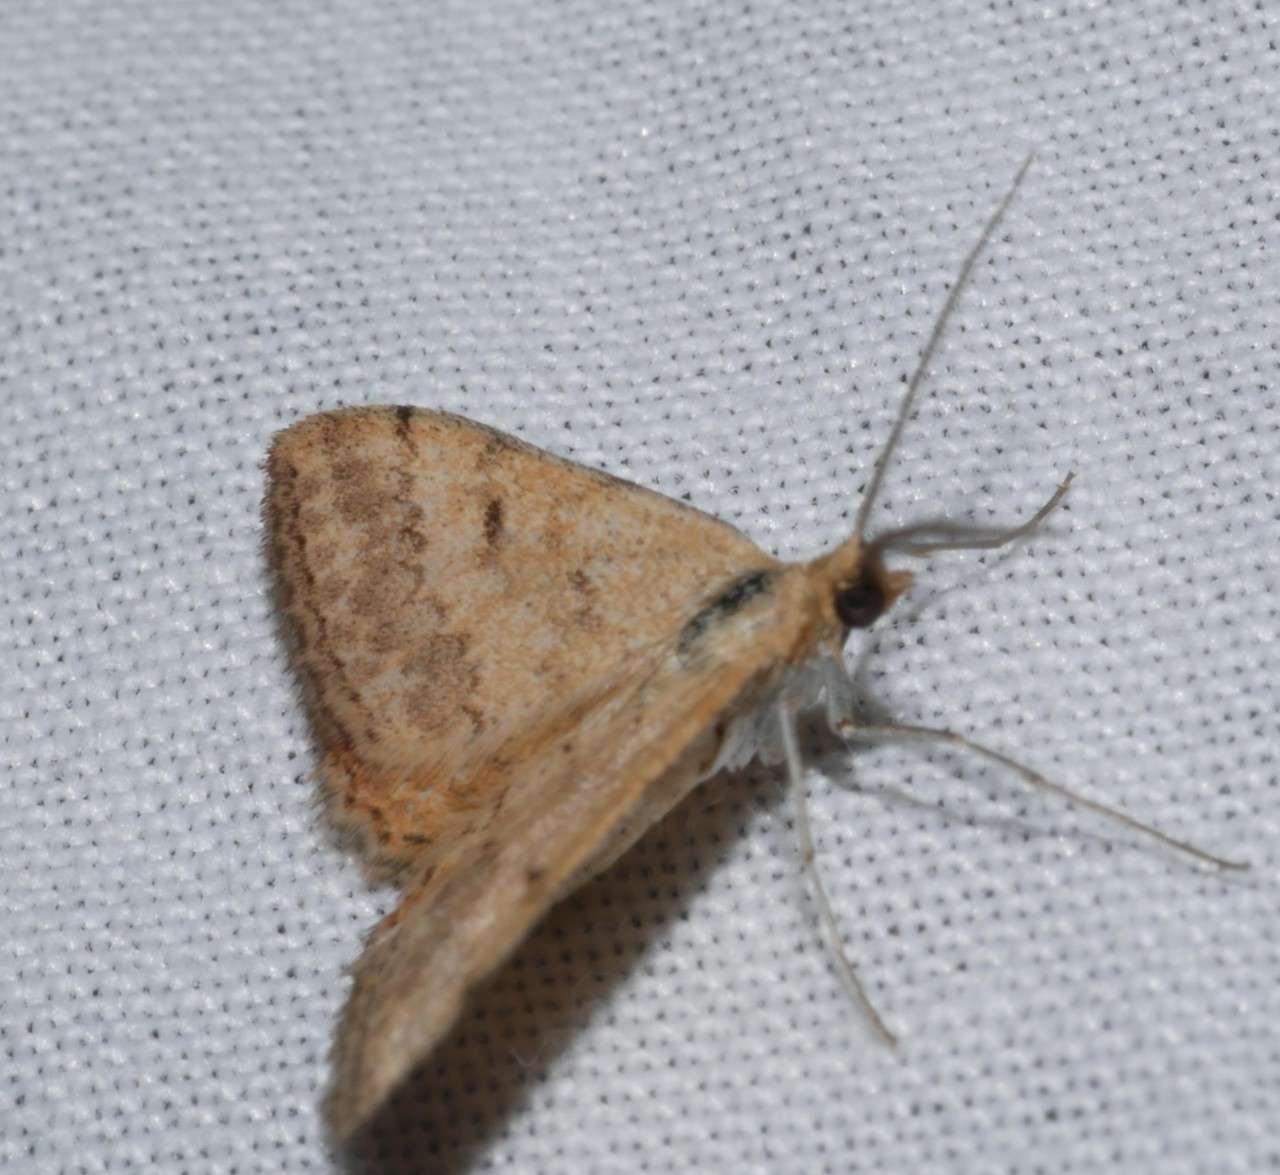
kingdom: Animalia
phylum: Arthropoda
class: Insecta
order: Lepidoptera
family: Geometridae
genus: Scopula
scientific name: Scopula rubraria
